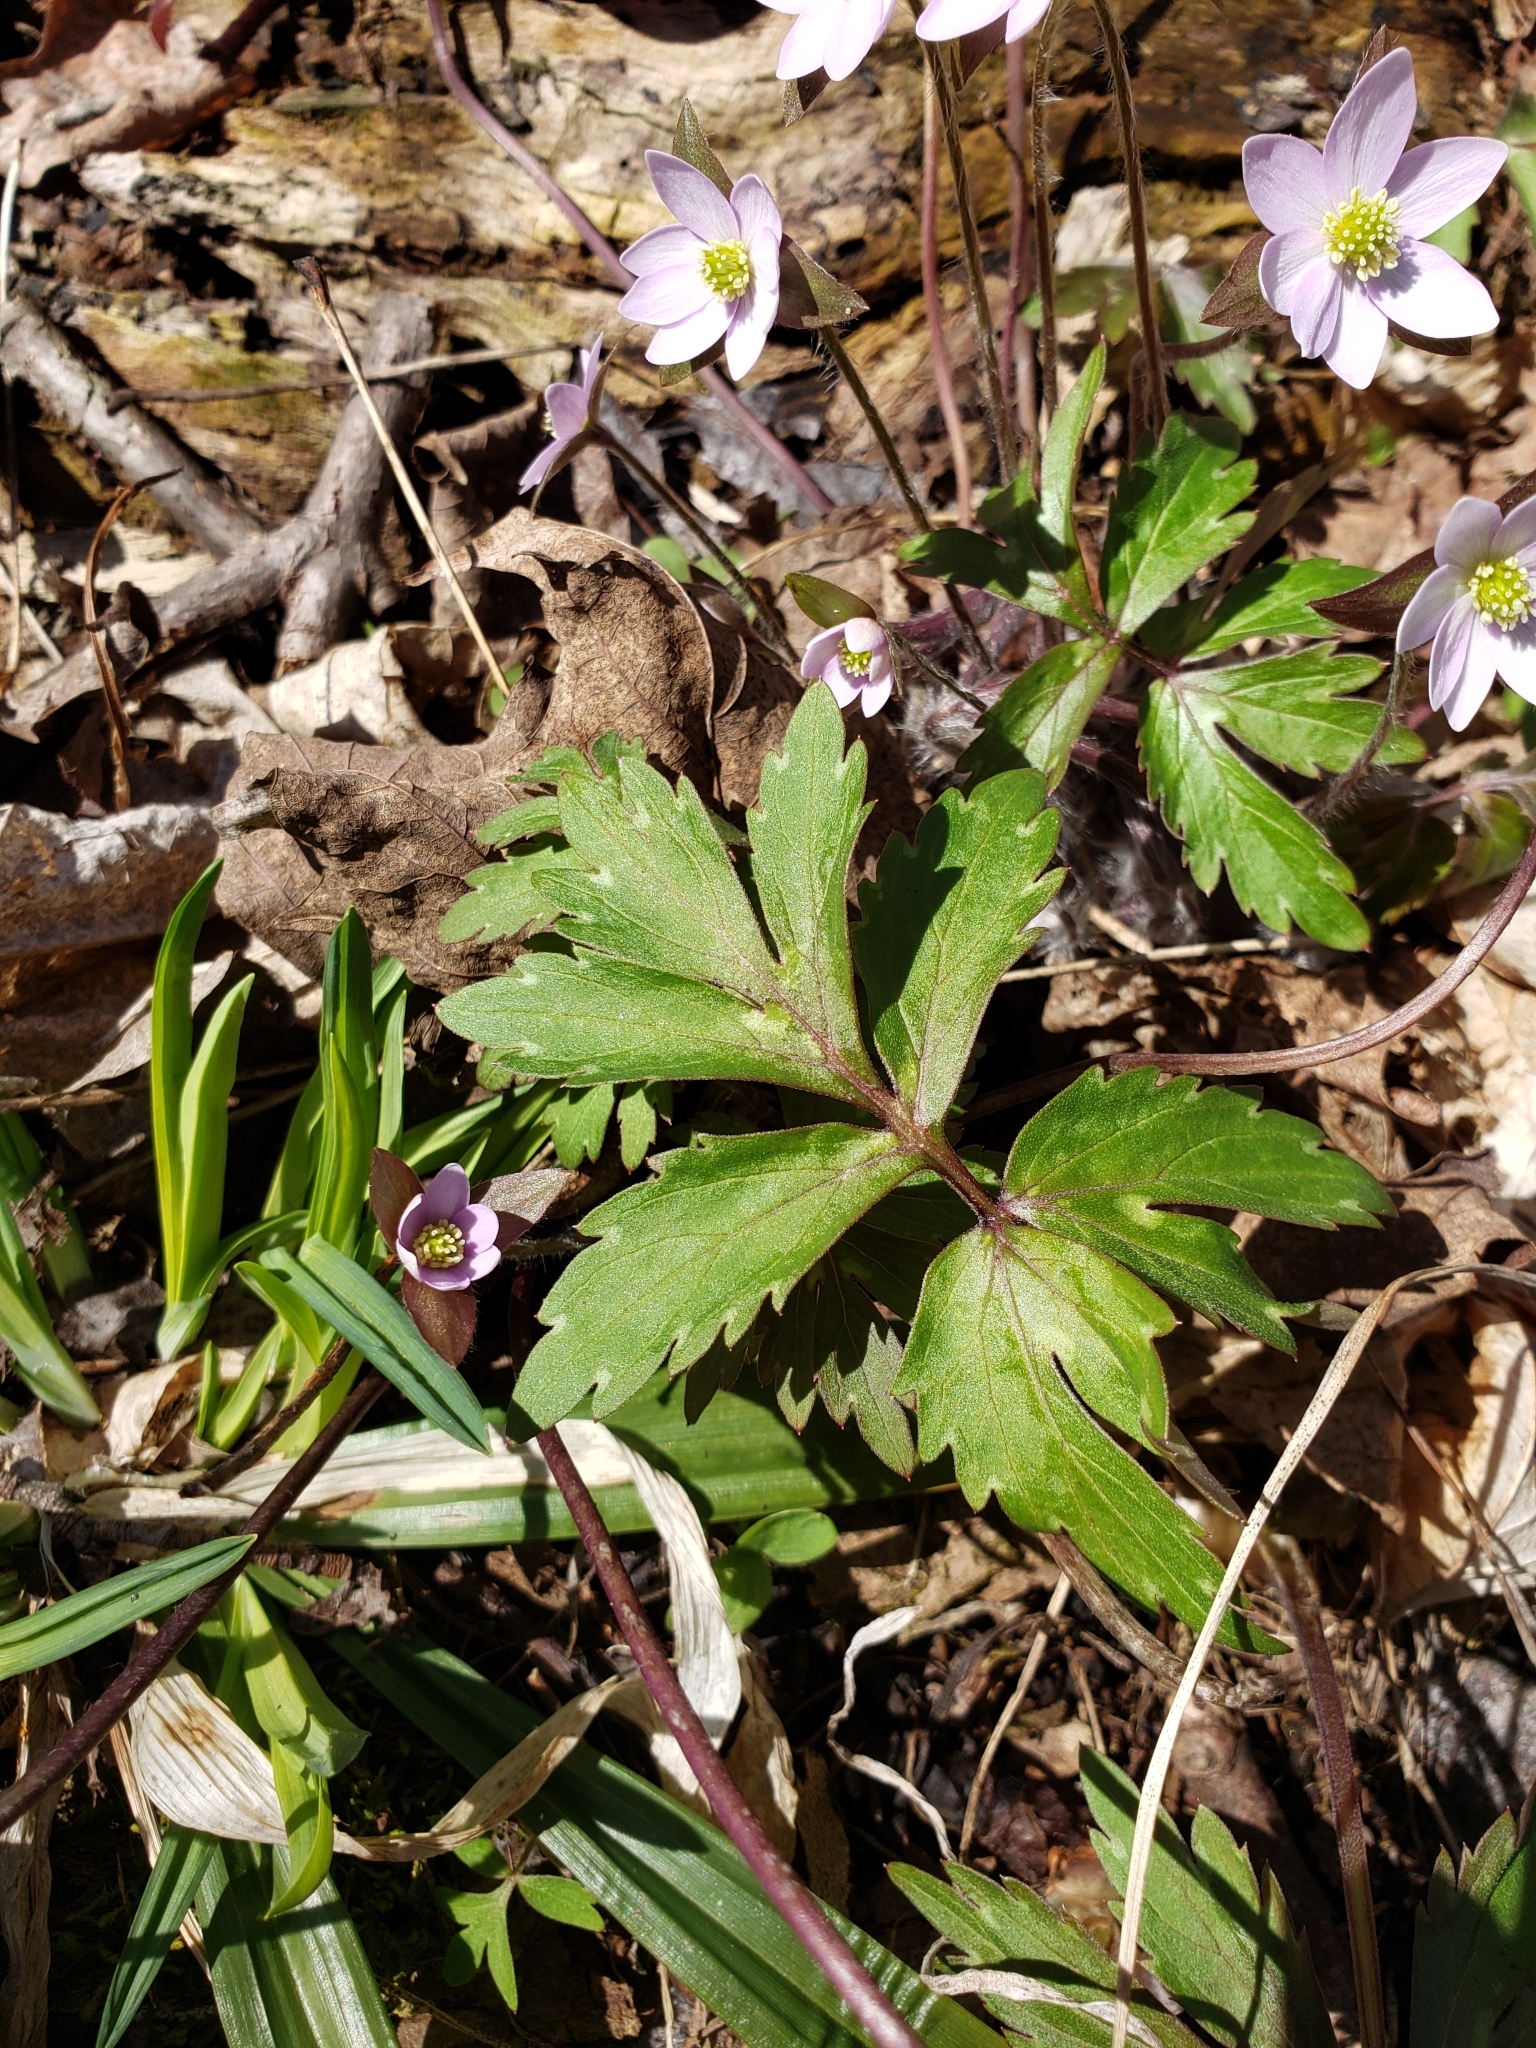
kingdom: Plantae
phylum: Tracheophyta
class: Magnoliopsida
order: Boraginales
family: Hydrophyllaceae
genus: Hydrophyllum
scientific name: Hydrophyllum virginianum
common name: Virginia waterleaf
